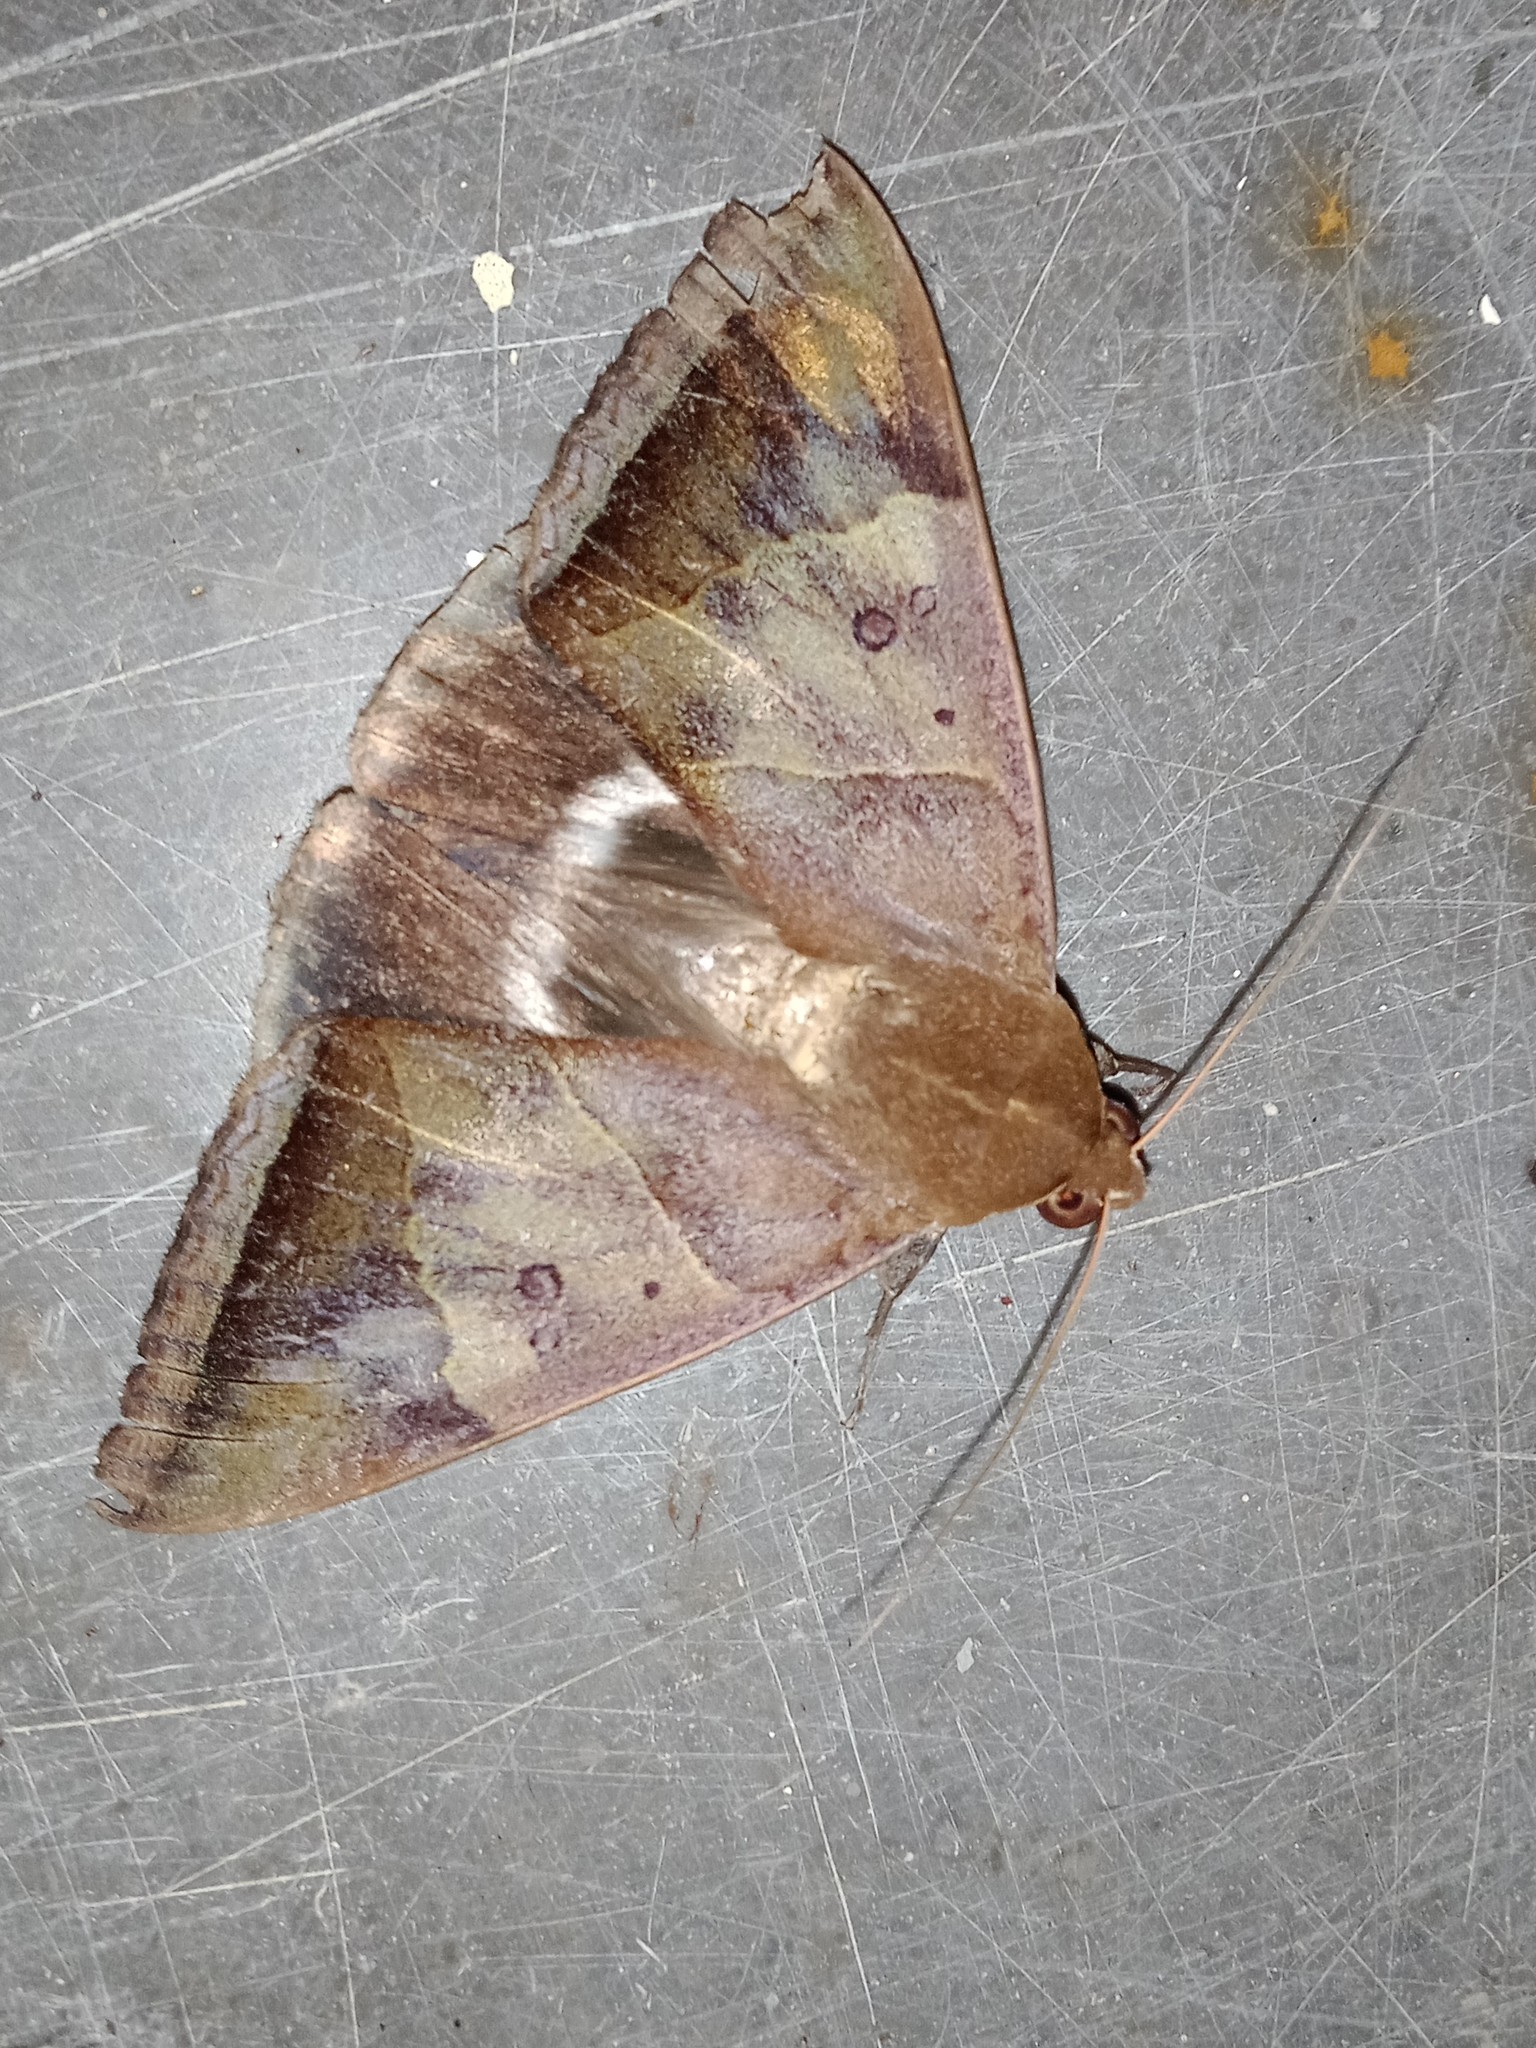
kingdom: Animalia
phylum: Arthropoda
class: Insecta
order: Lepidoptera
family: Erebidae
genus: Artena
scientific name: Artena dotata
